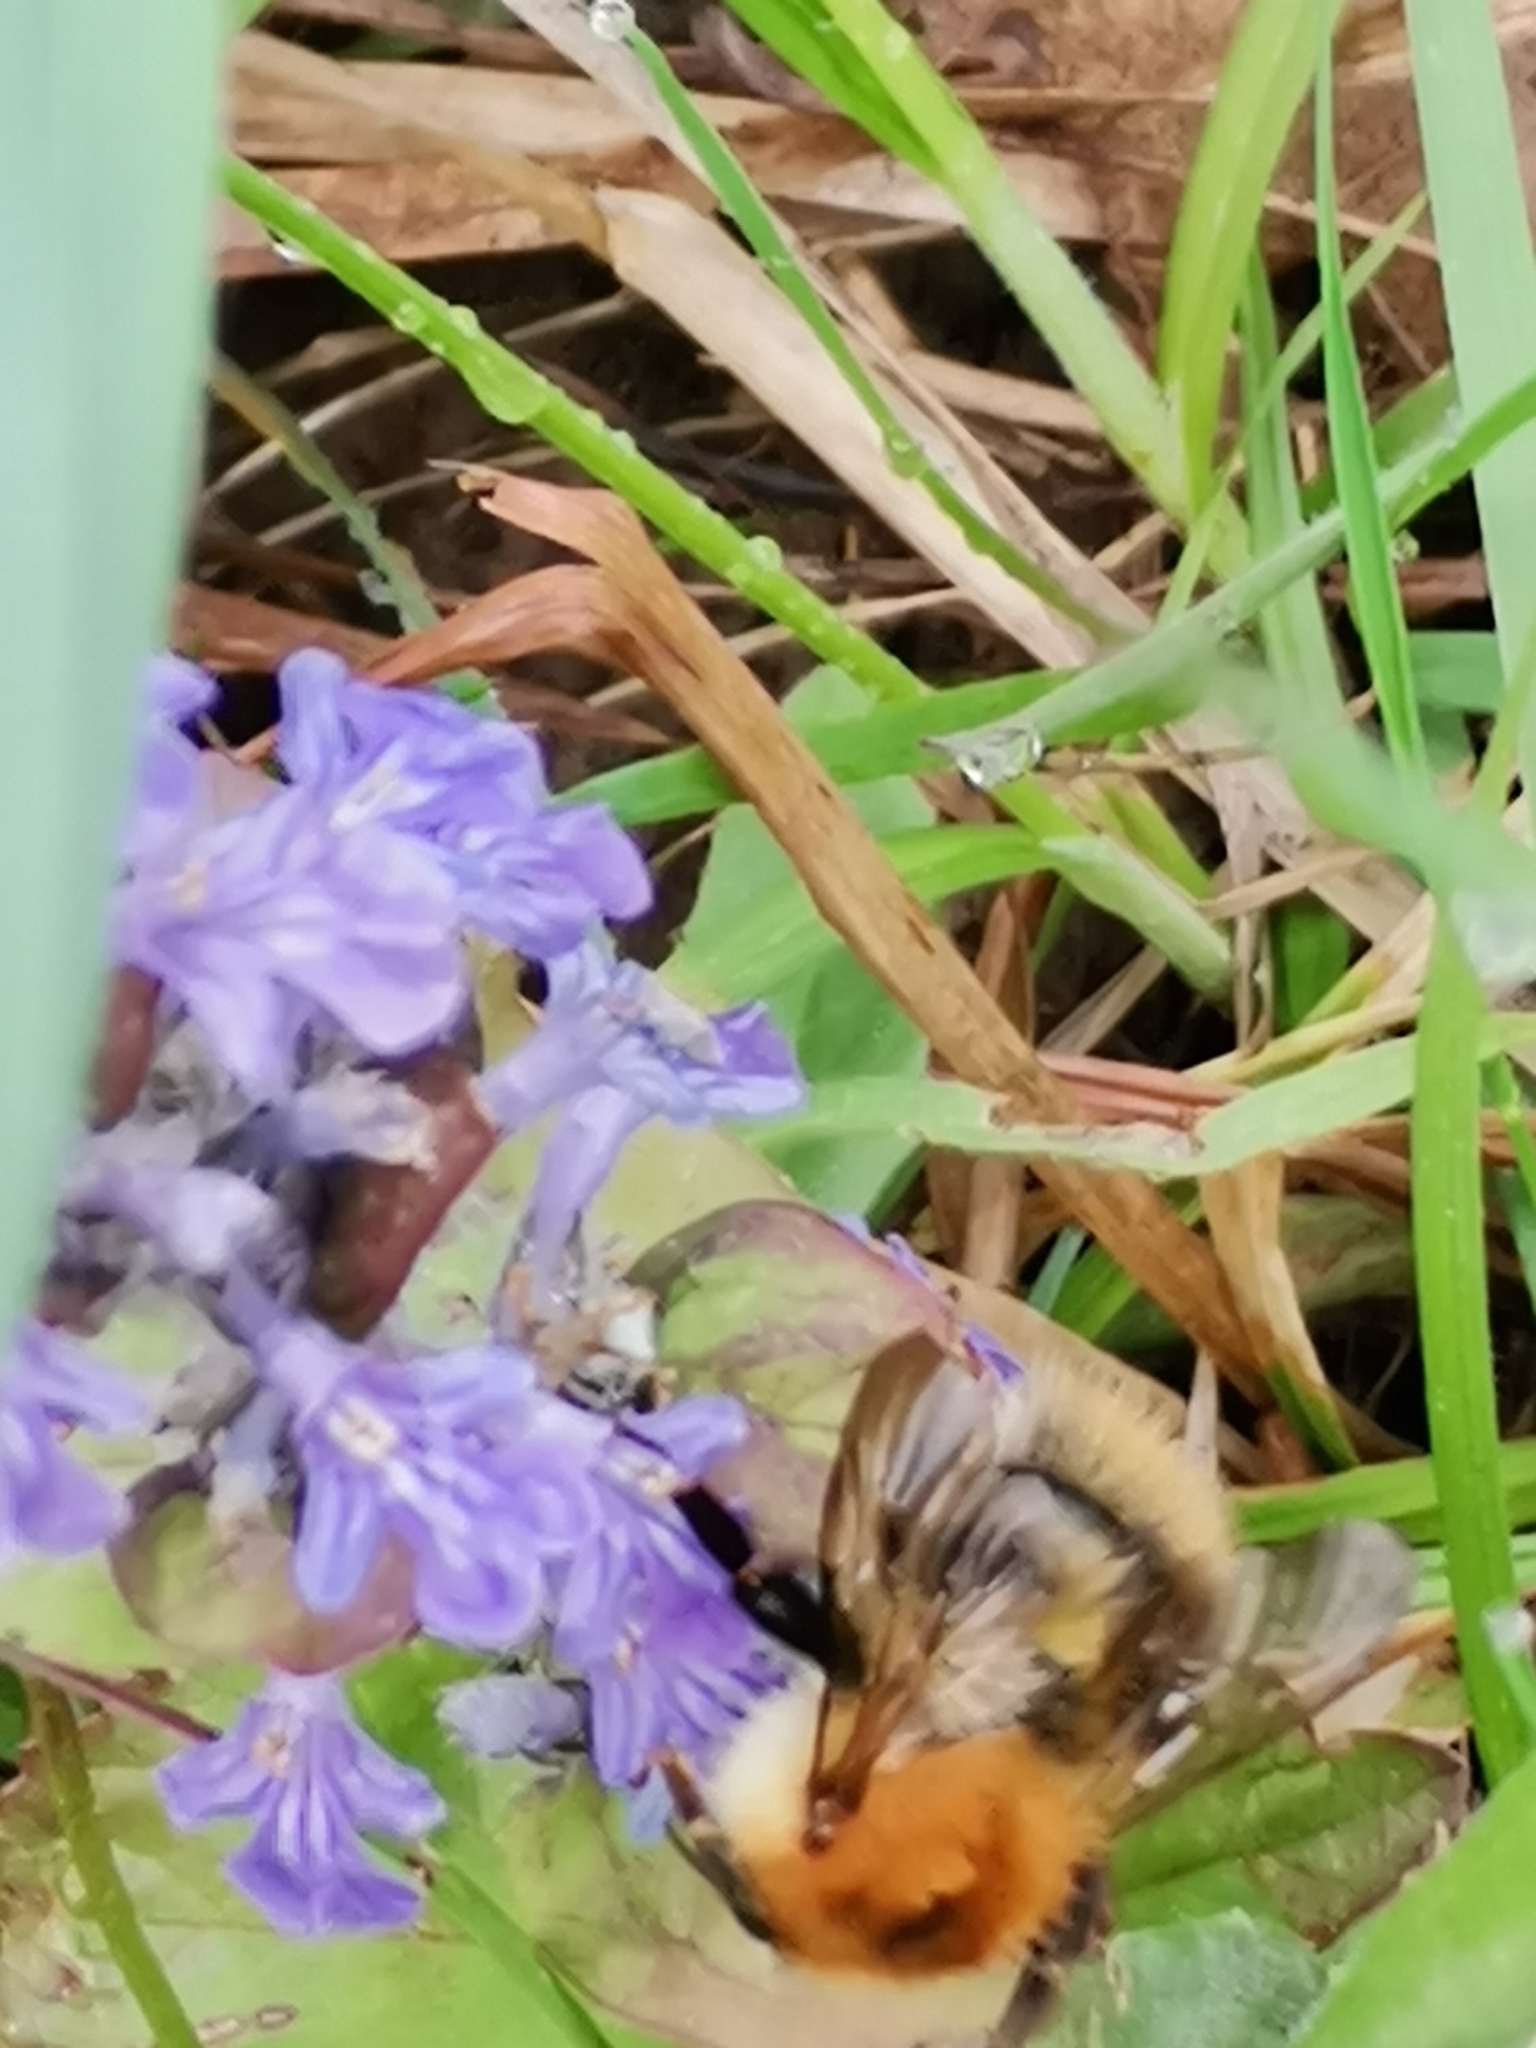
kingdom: Animalia
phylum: Arthropoda
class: Insecta
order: Hymenoptera
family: Apidae
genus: Bombus
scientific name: Bombus pascuorum
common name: Common carder bee
